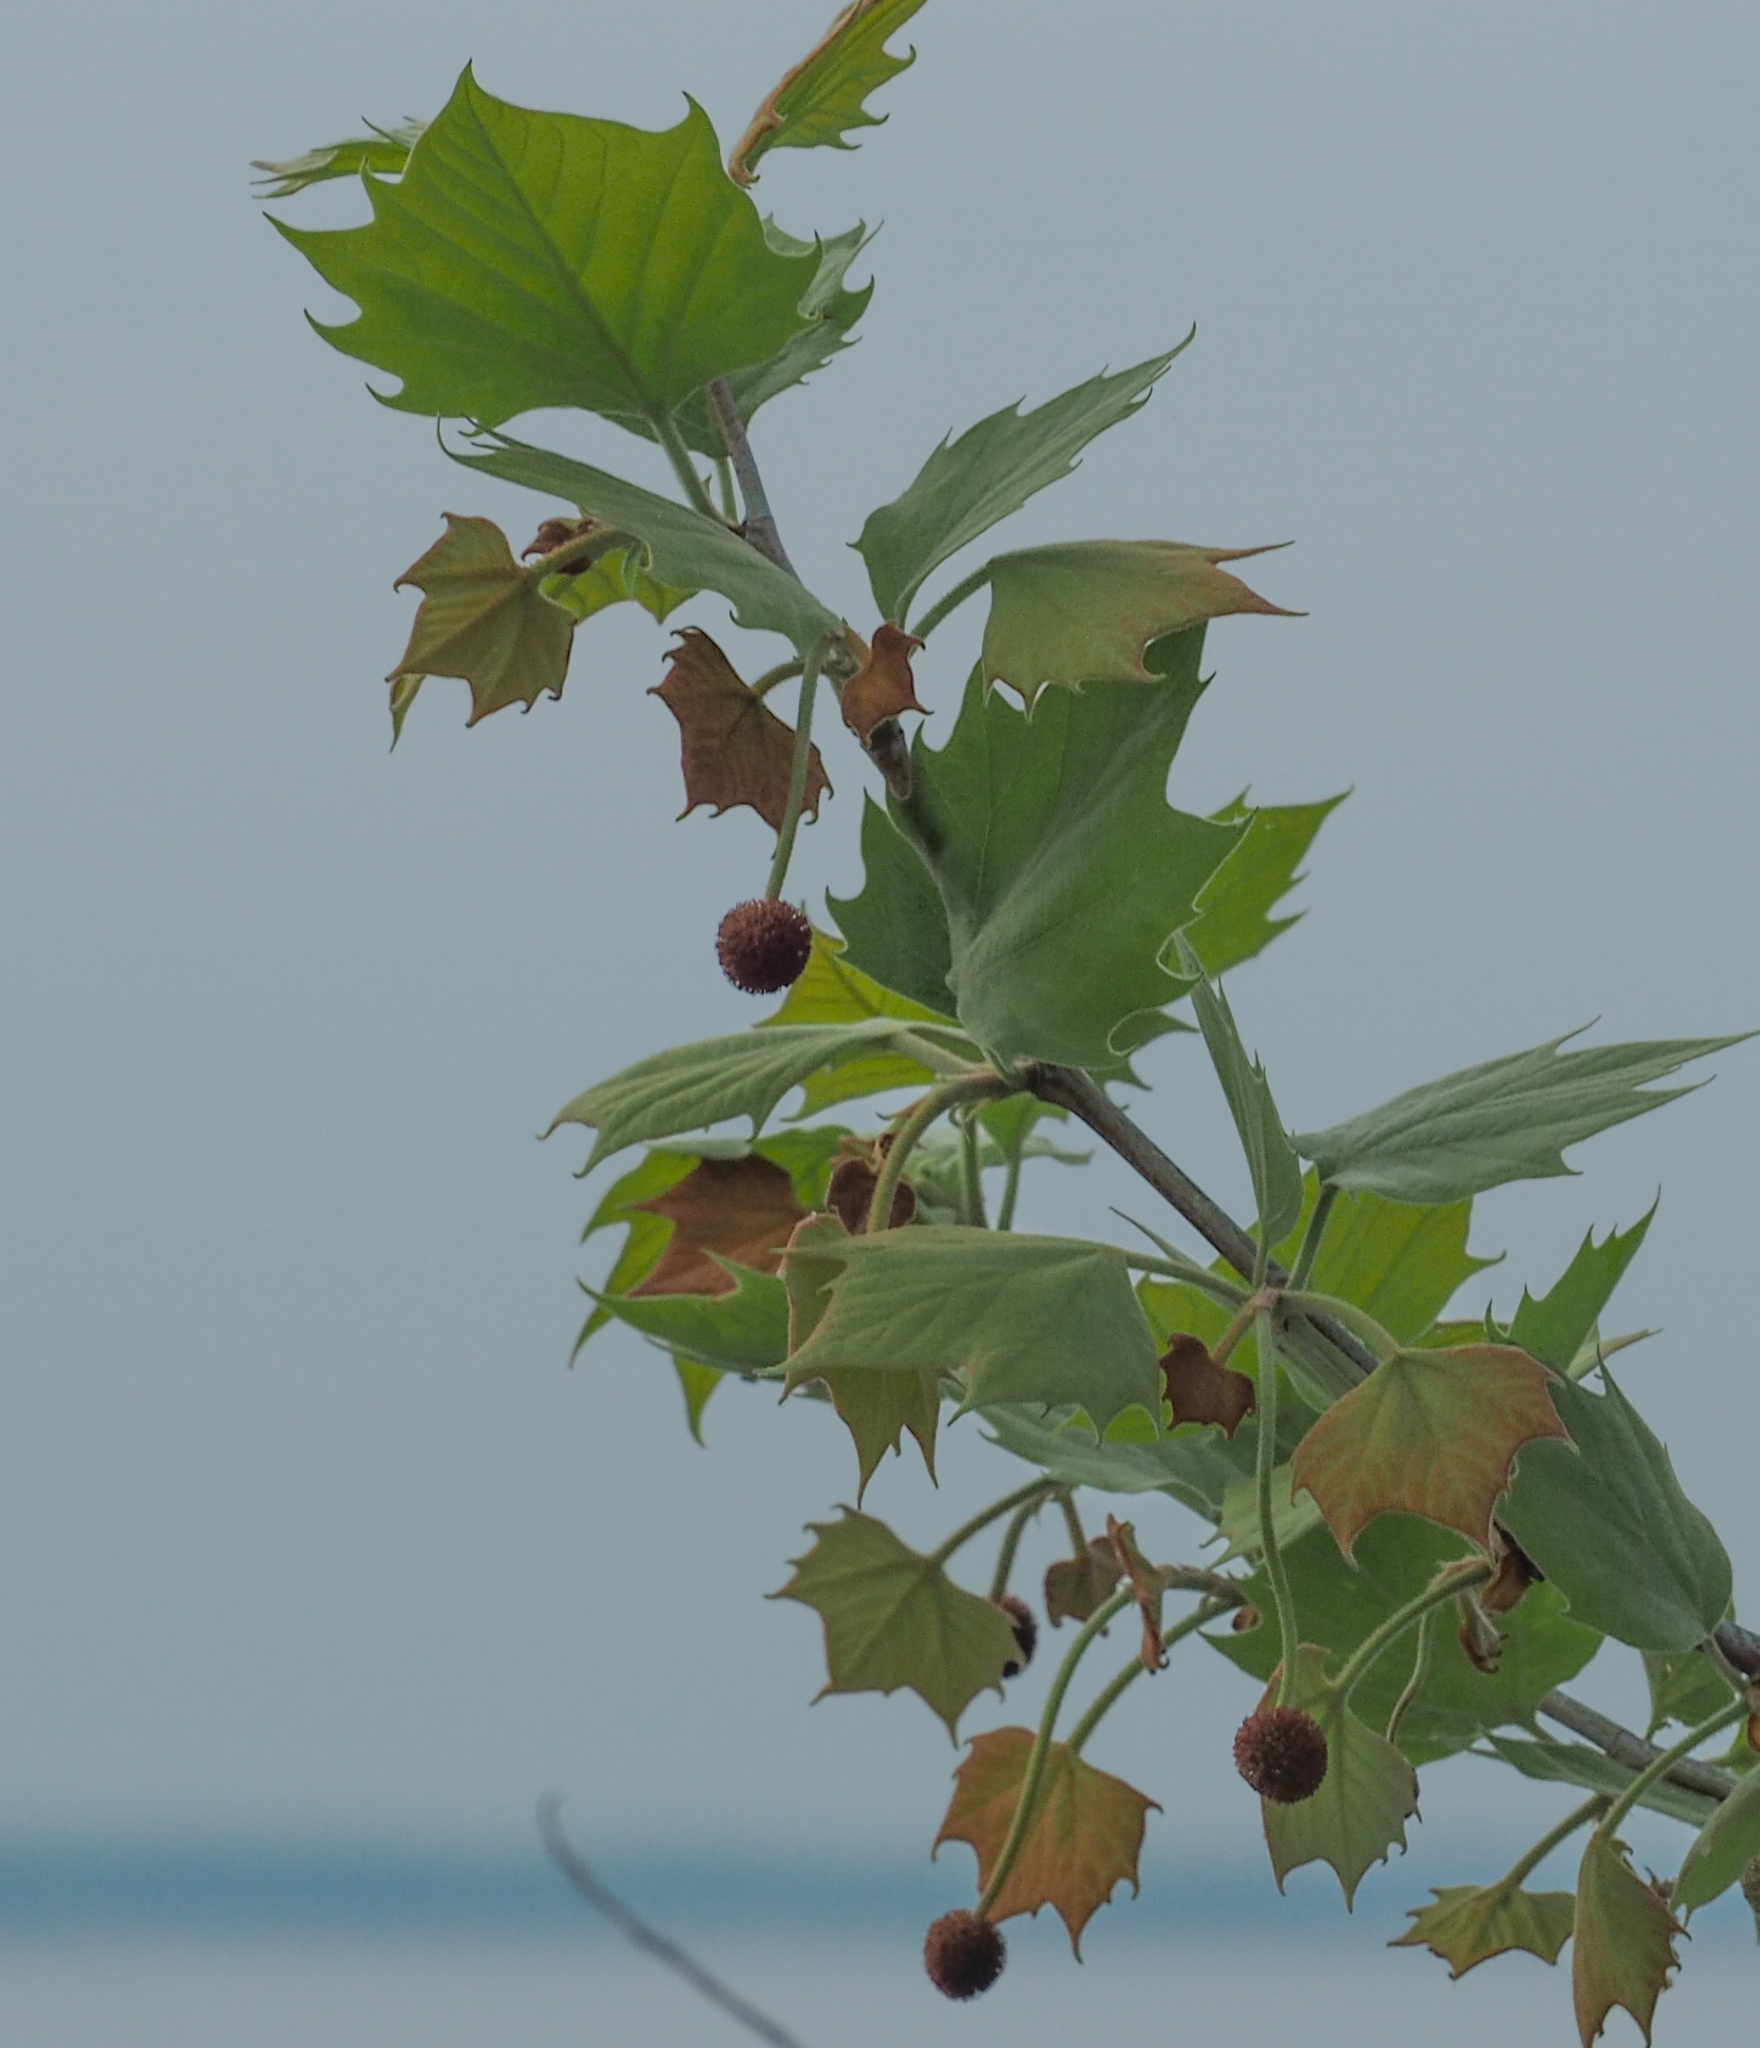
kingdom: Plantae
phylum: Tracheophyta
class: Magnoliopsida
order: Proteales
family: Platanaceae
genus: Platanus
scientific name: Platanus occidentalis
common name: American sycamore
